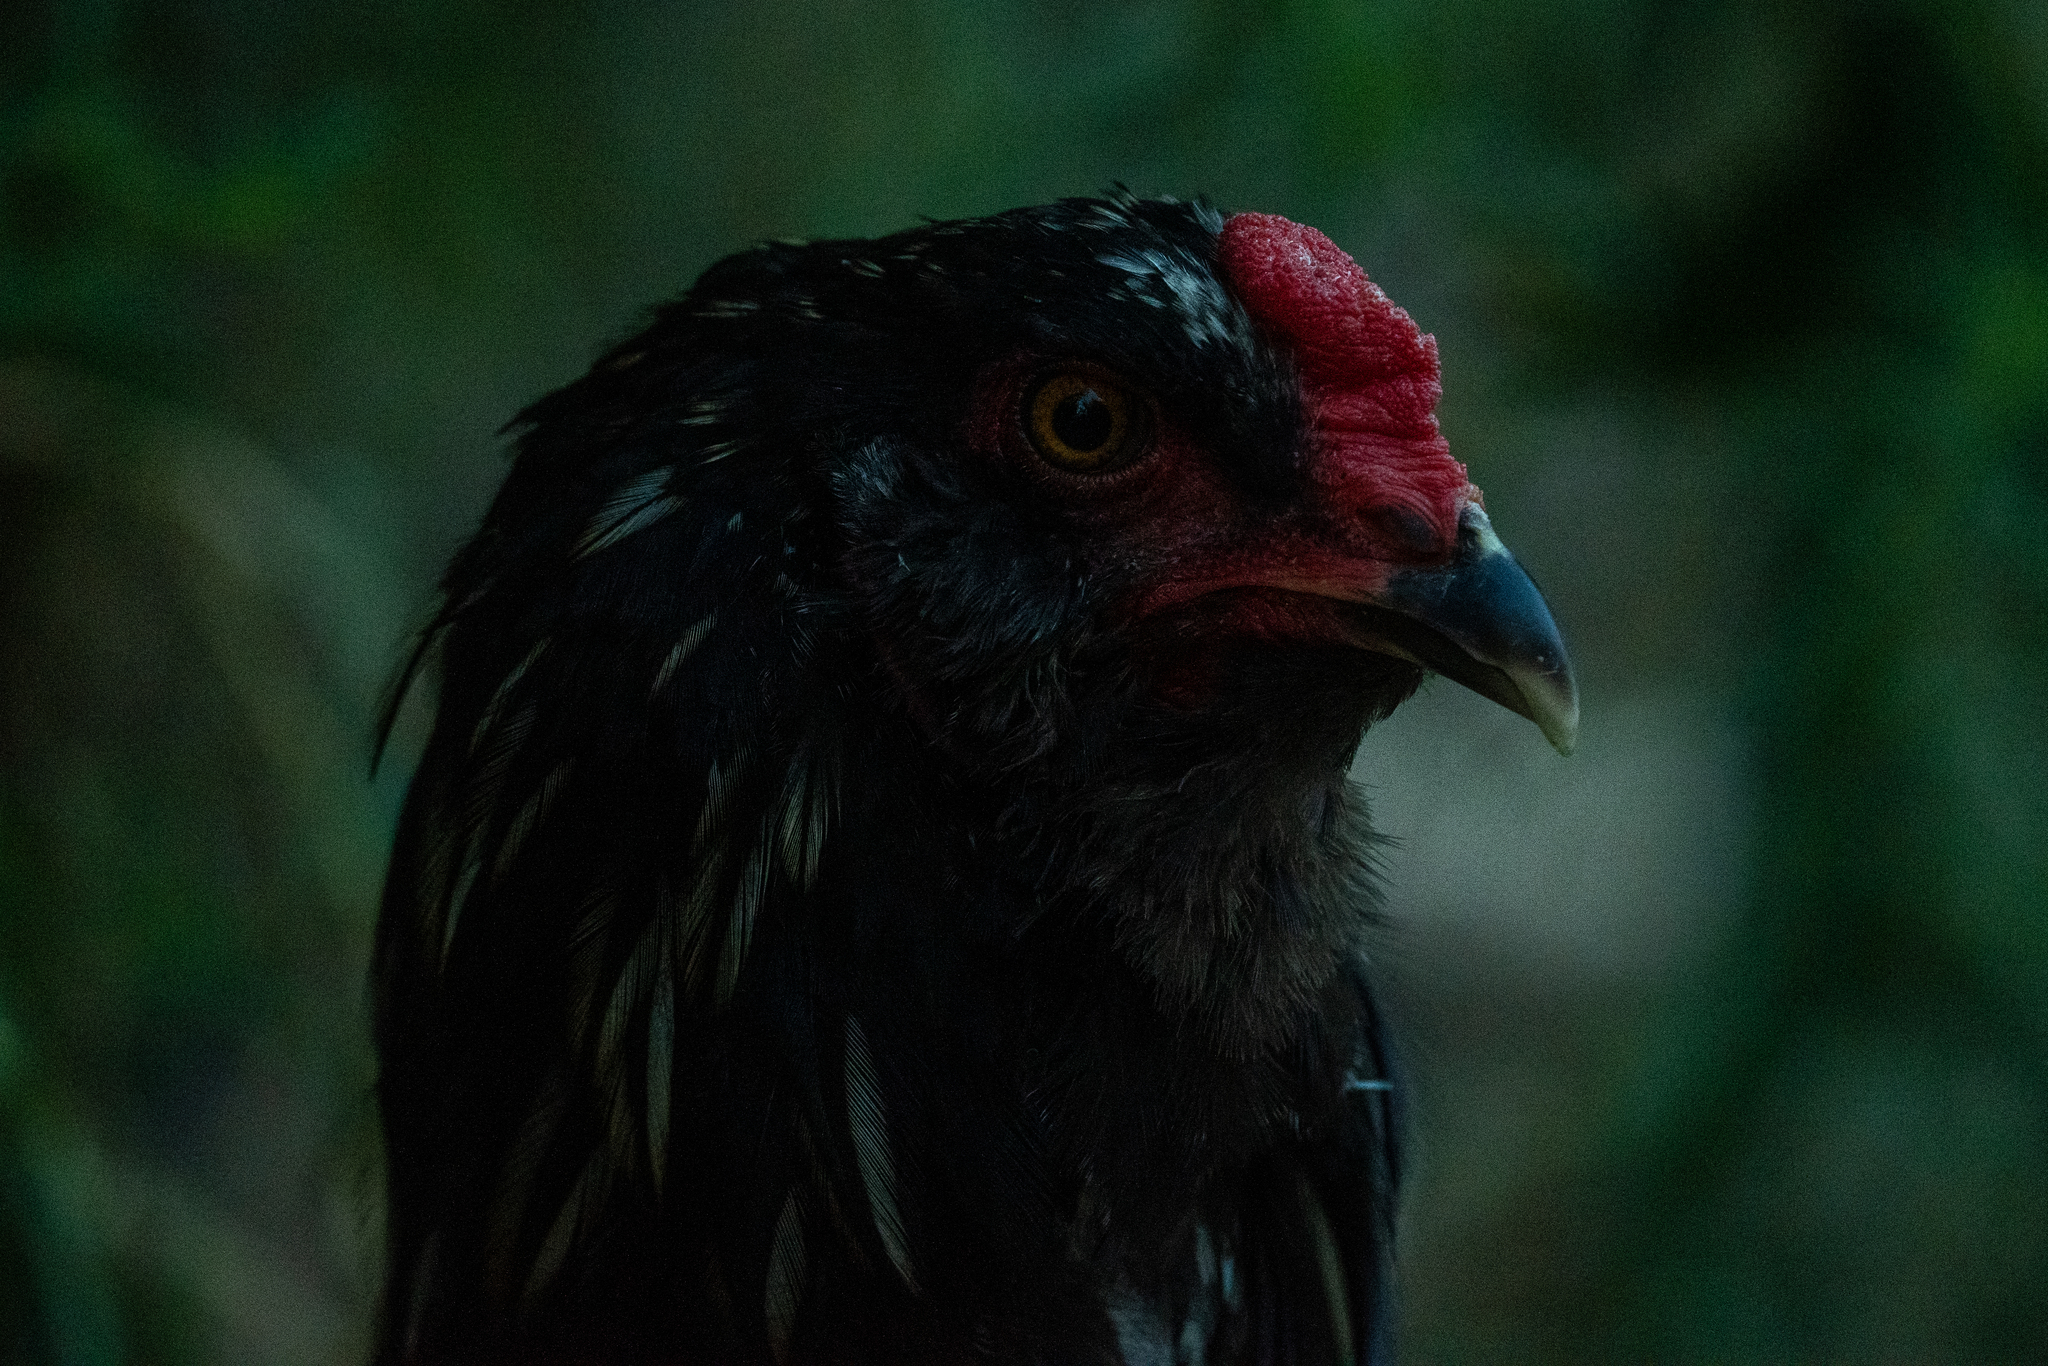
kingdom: Animalia
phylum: Chordata
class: Aves
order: Galliformes
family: Phasianidae
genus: Gallus
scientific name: Gallus gallus
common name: Red junglefowl
